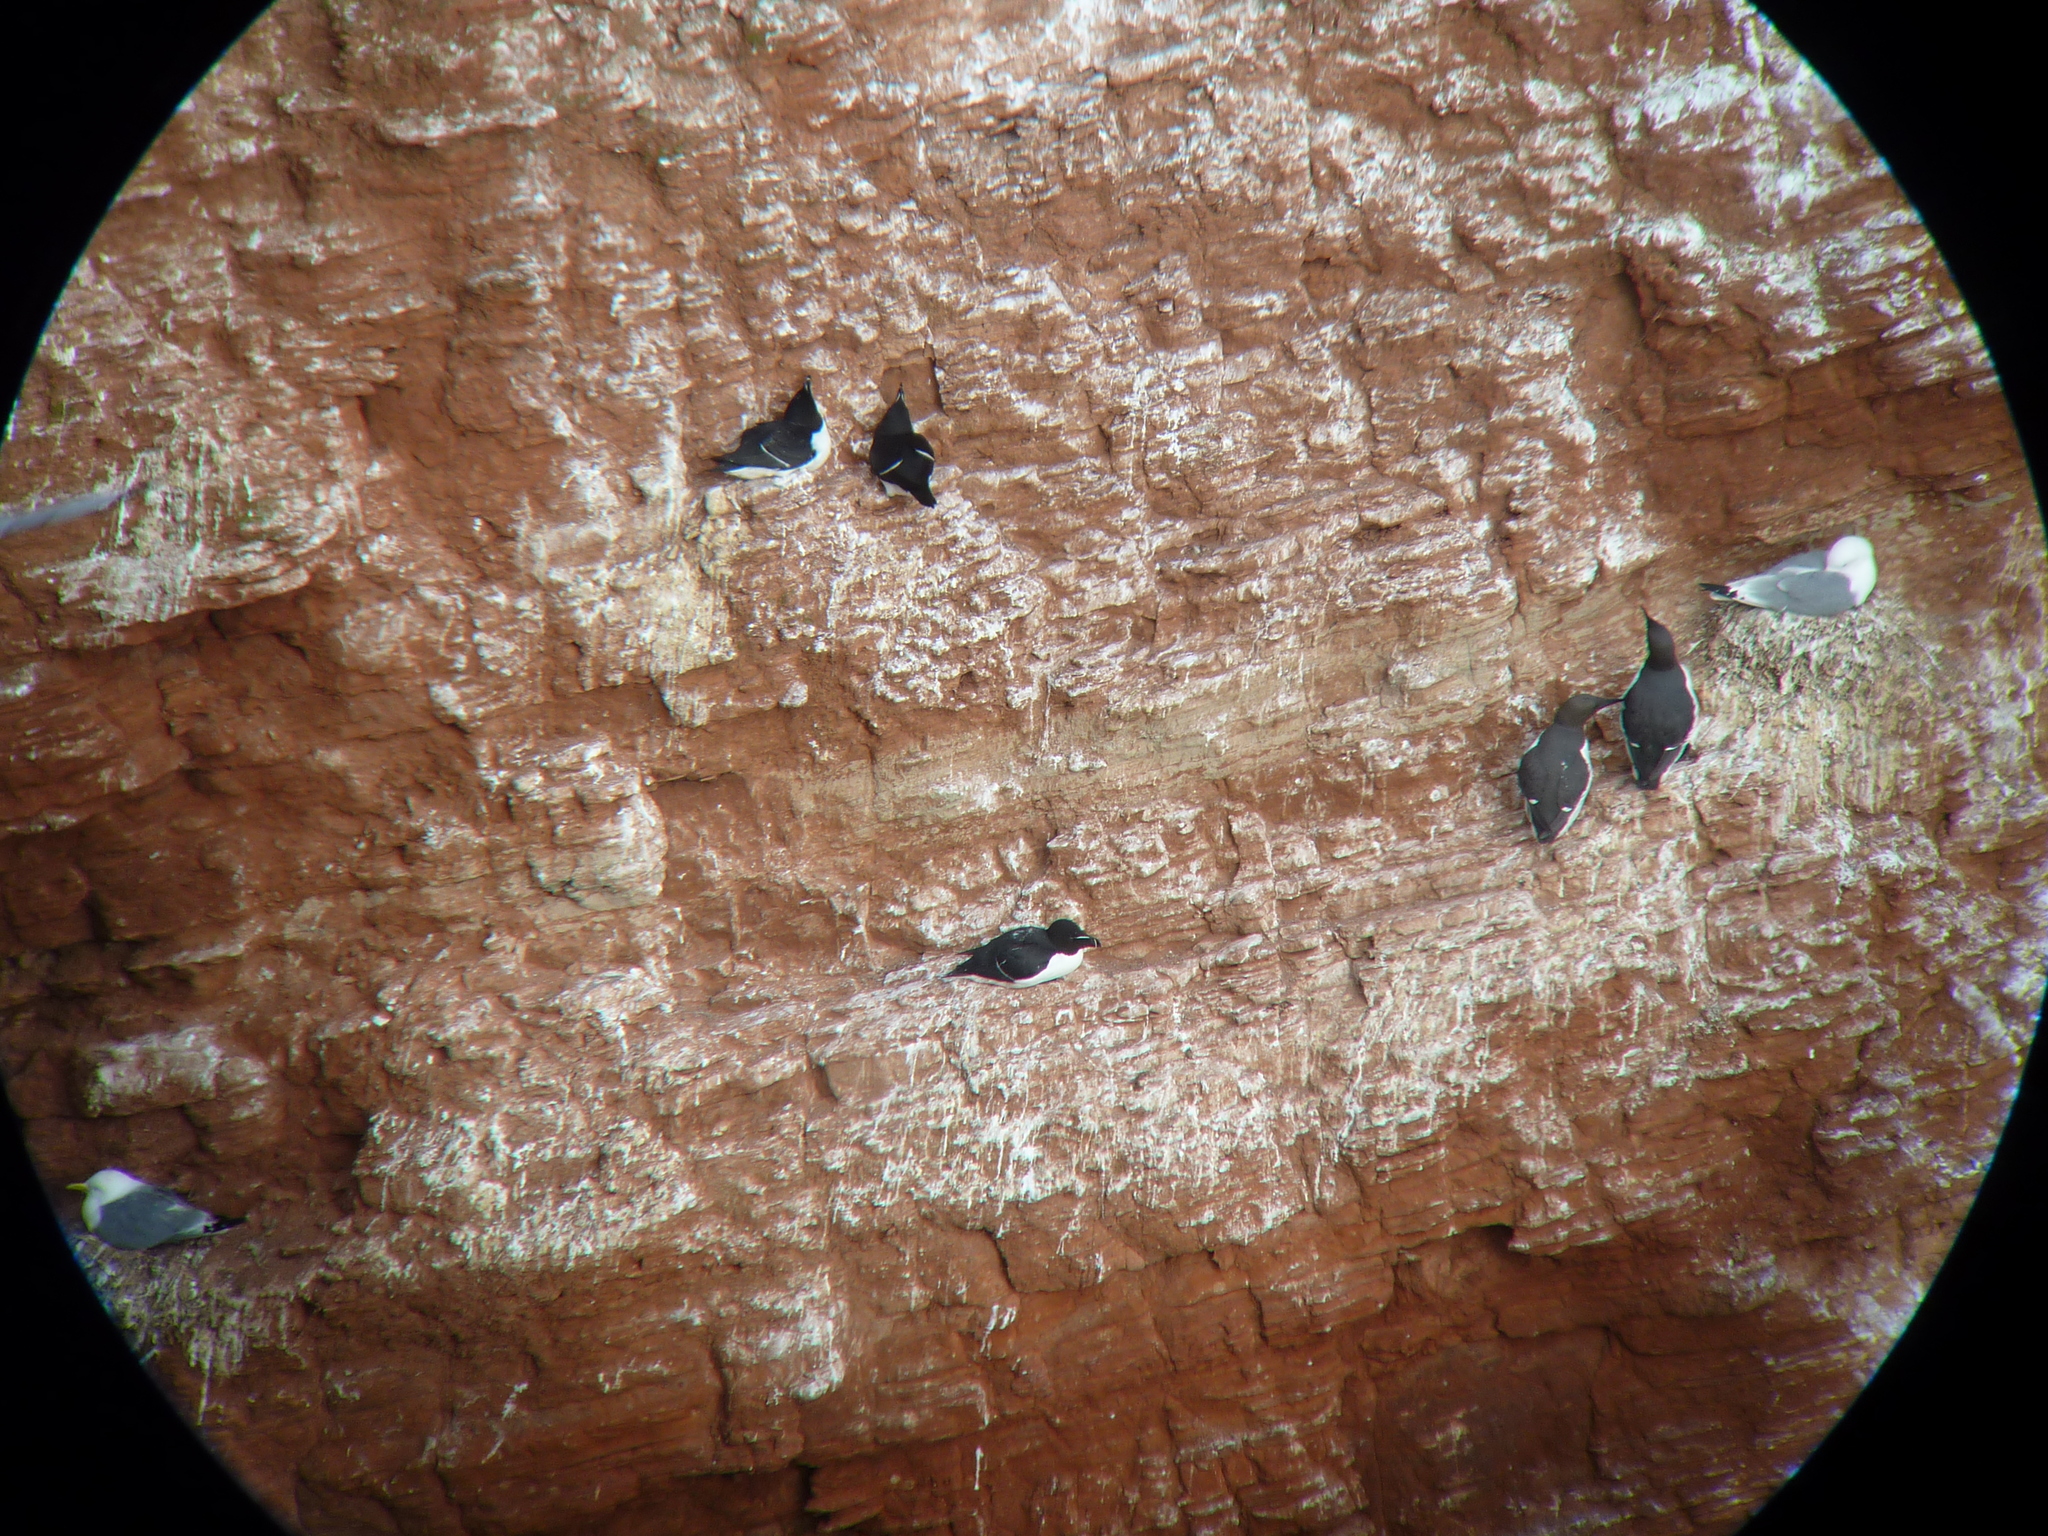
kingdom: Animalia
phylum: Chordata
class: Aves
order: Charadriiformes
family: Alcidae
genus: Alca
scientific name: Alca torda
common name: Razorbill
